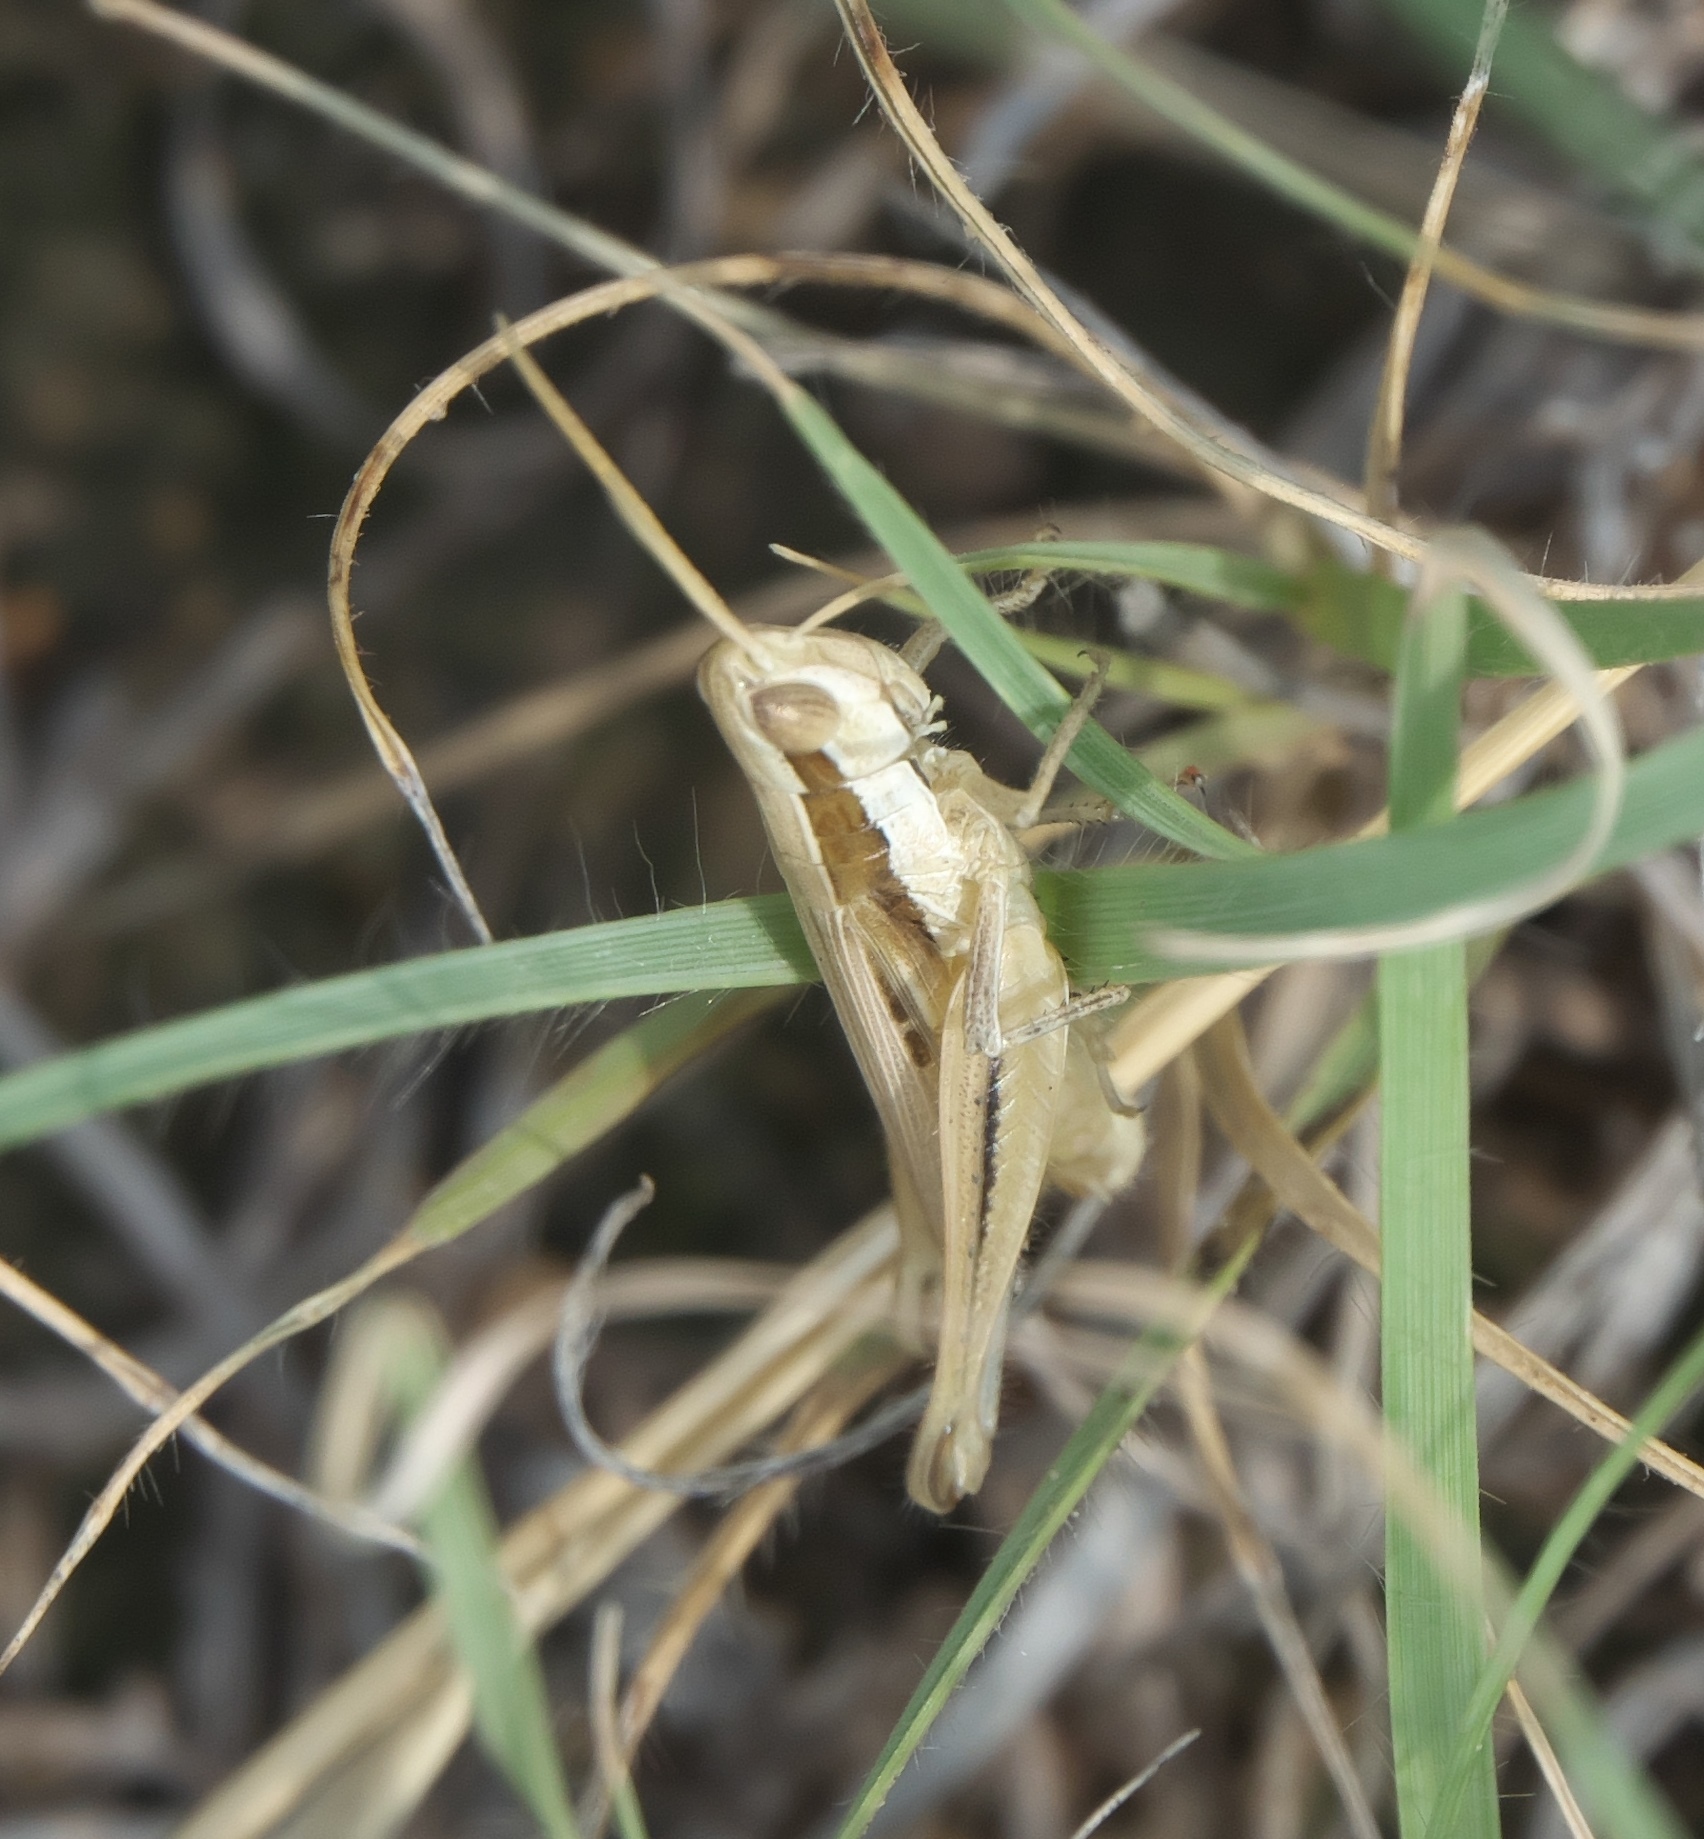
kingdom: Animalia
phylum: Arthropoda
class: Insecta
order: Orthoptera
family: Acrididae
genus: Opeia
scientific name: Opeia obscura
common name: Obscure grasshopper
